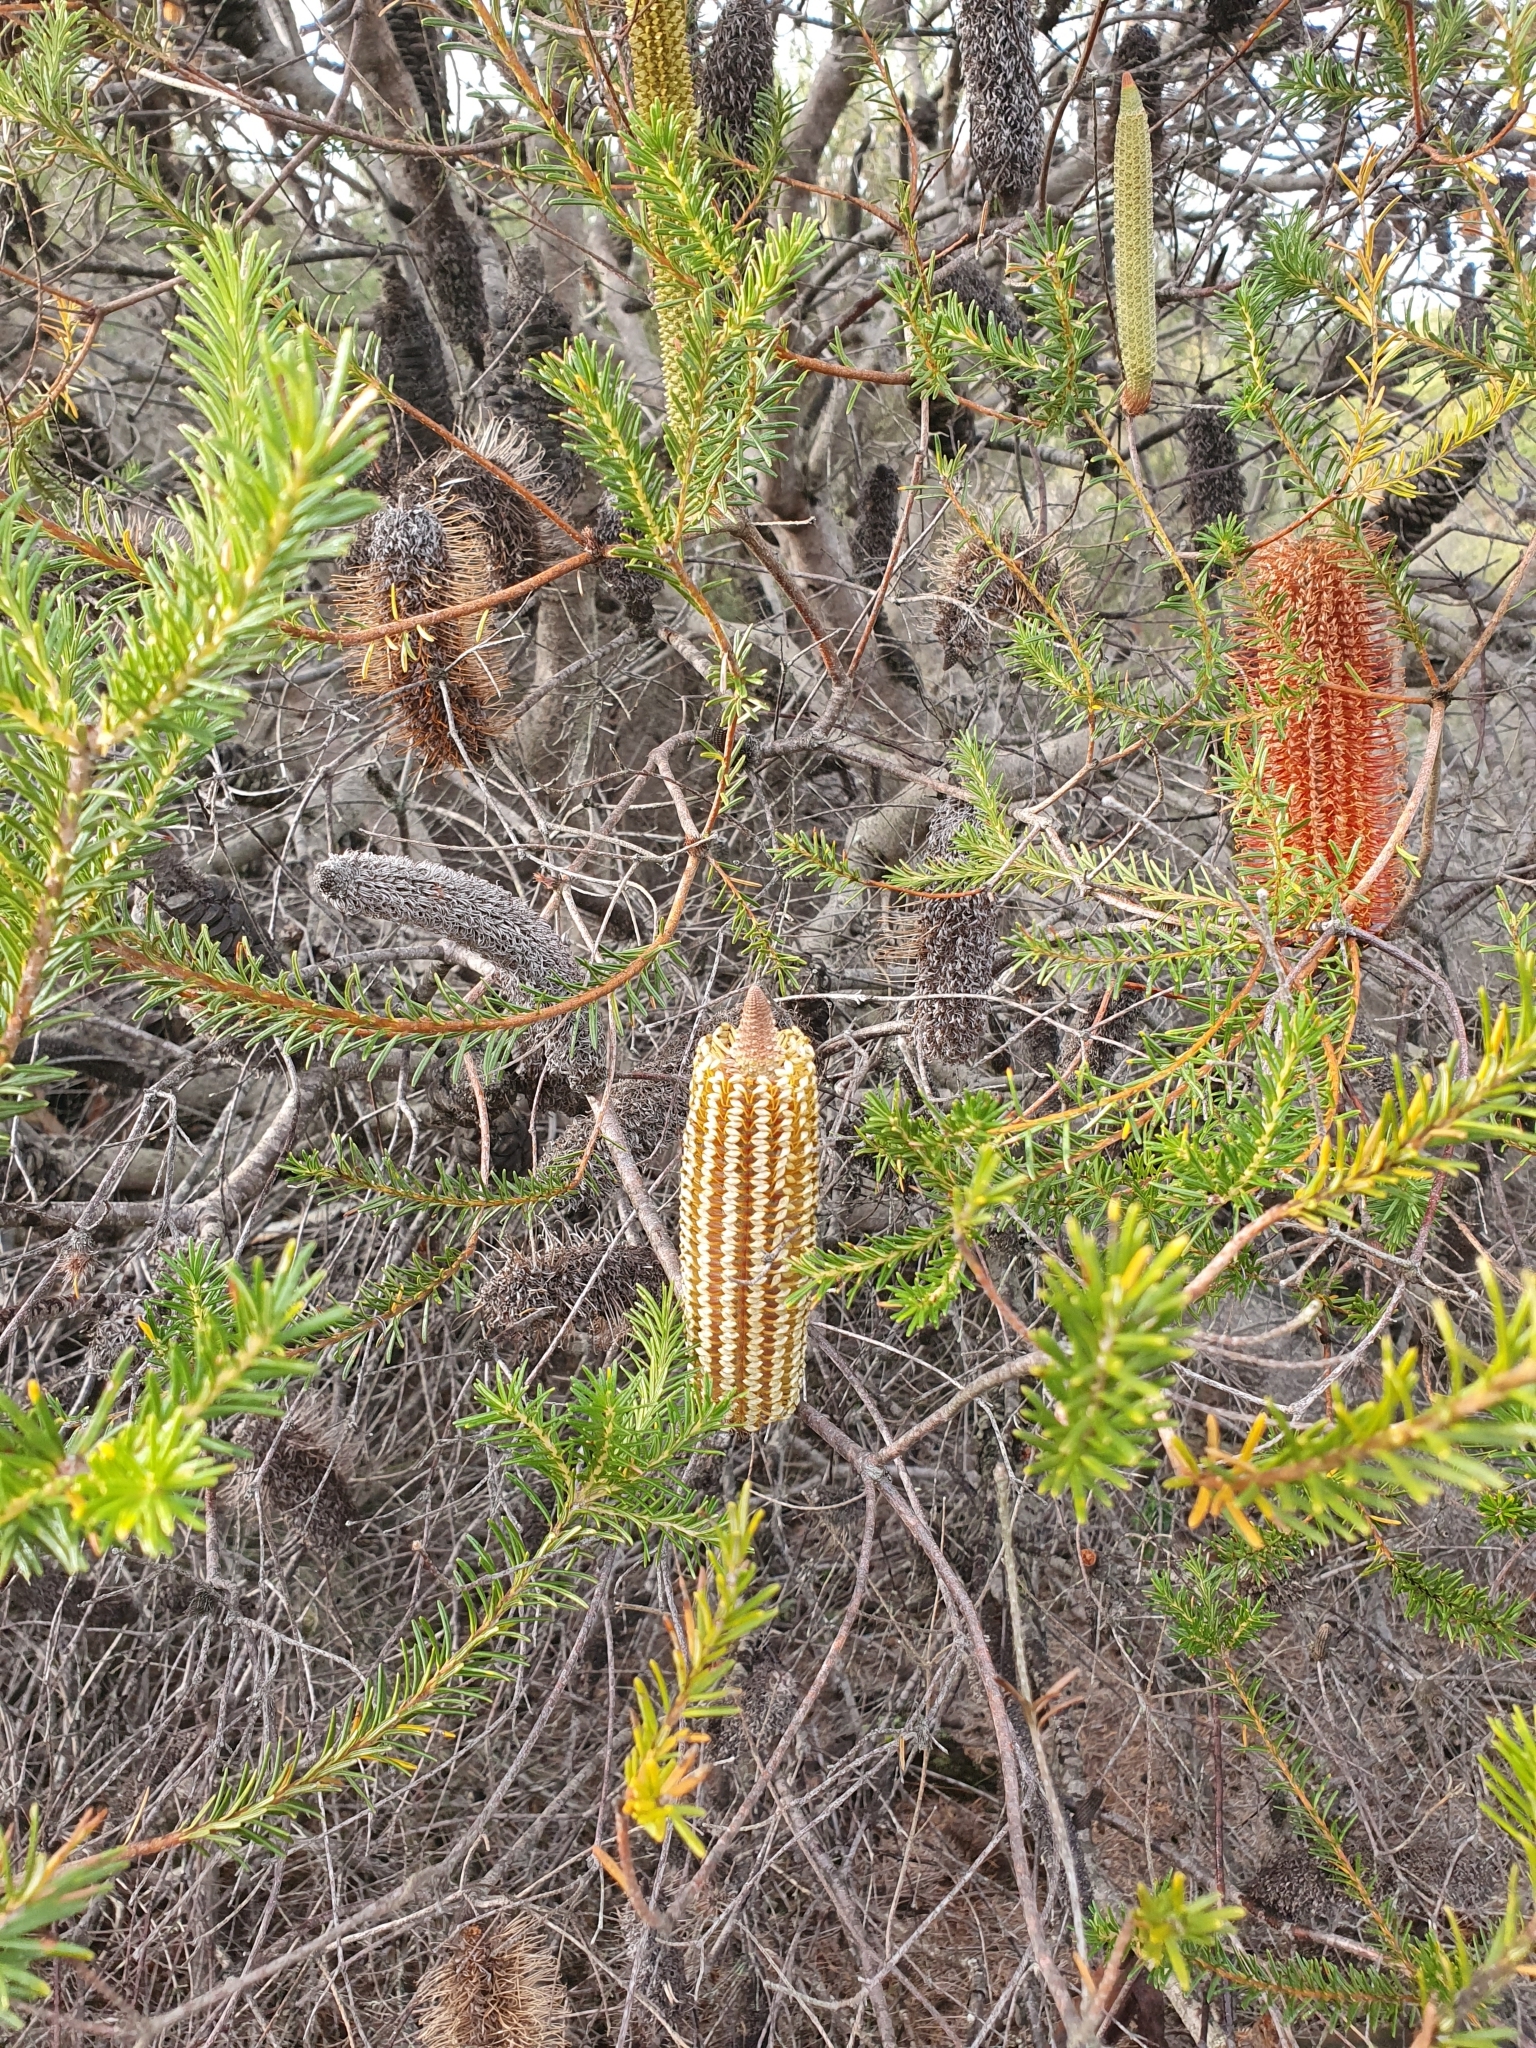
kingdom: Plantae
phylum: Tracheophyta
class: Magnoliopsida
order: Proteales
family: Proteaceae
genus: Banksia
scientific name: Banksia ericifolia
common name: Heath-leaf banksia
